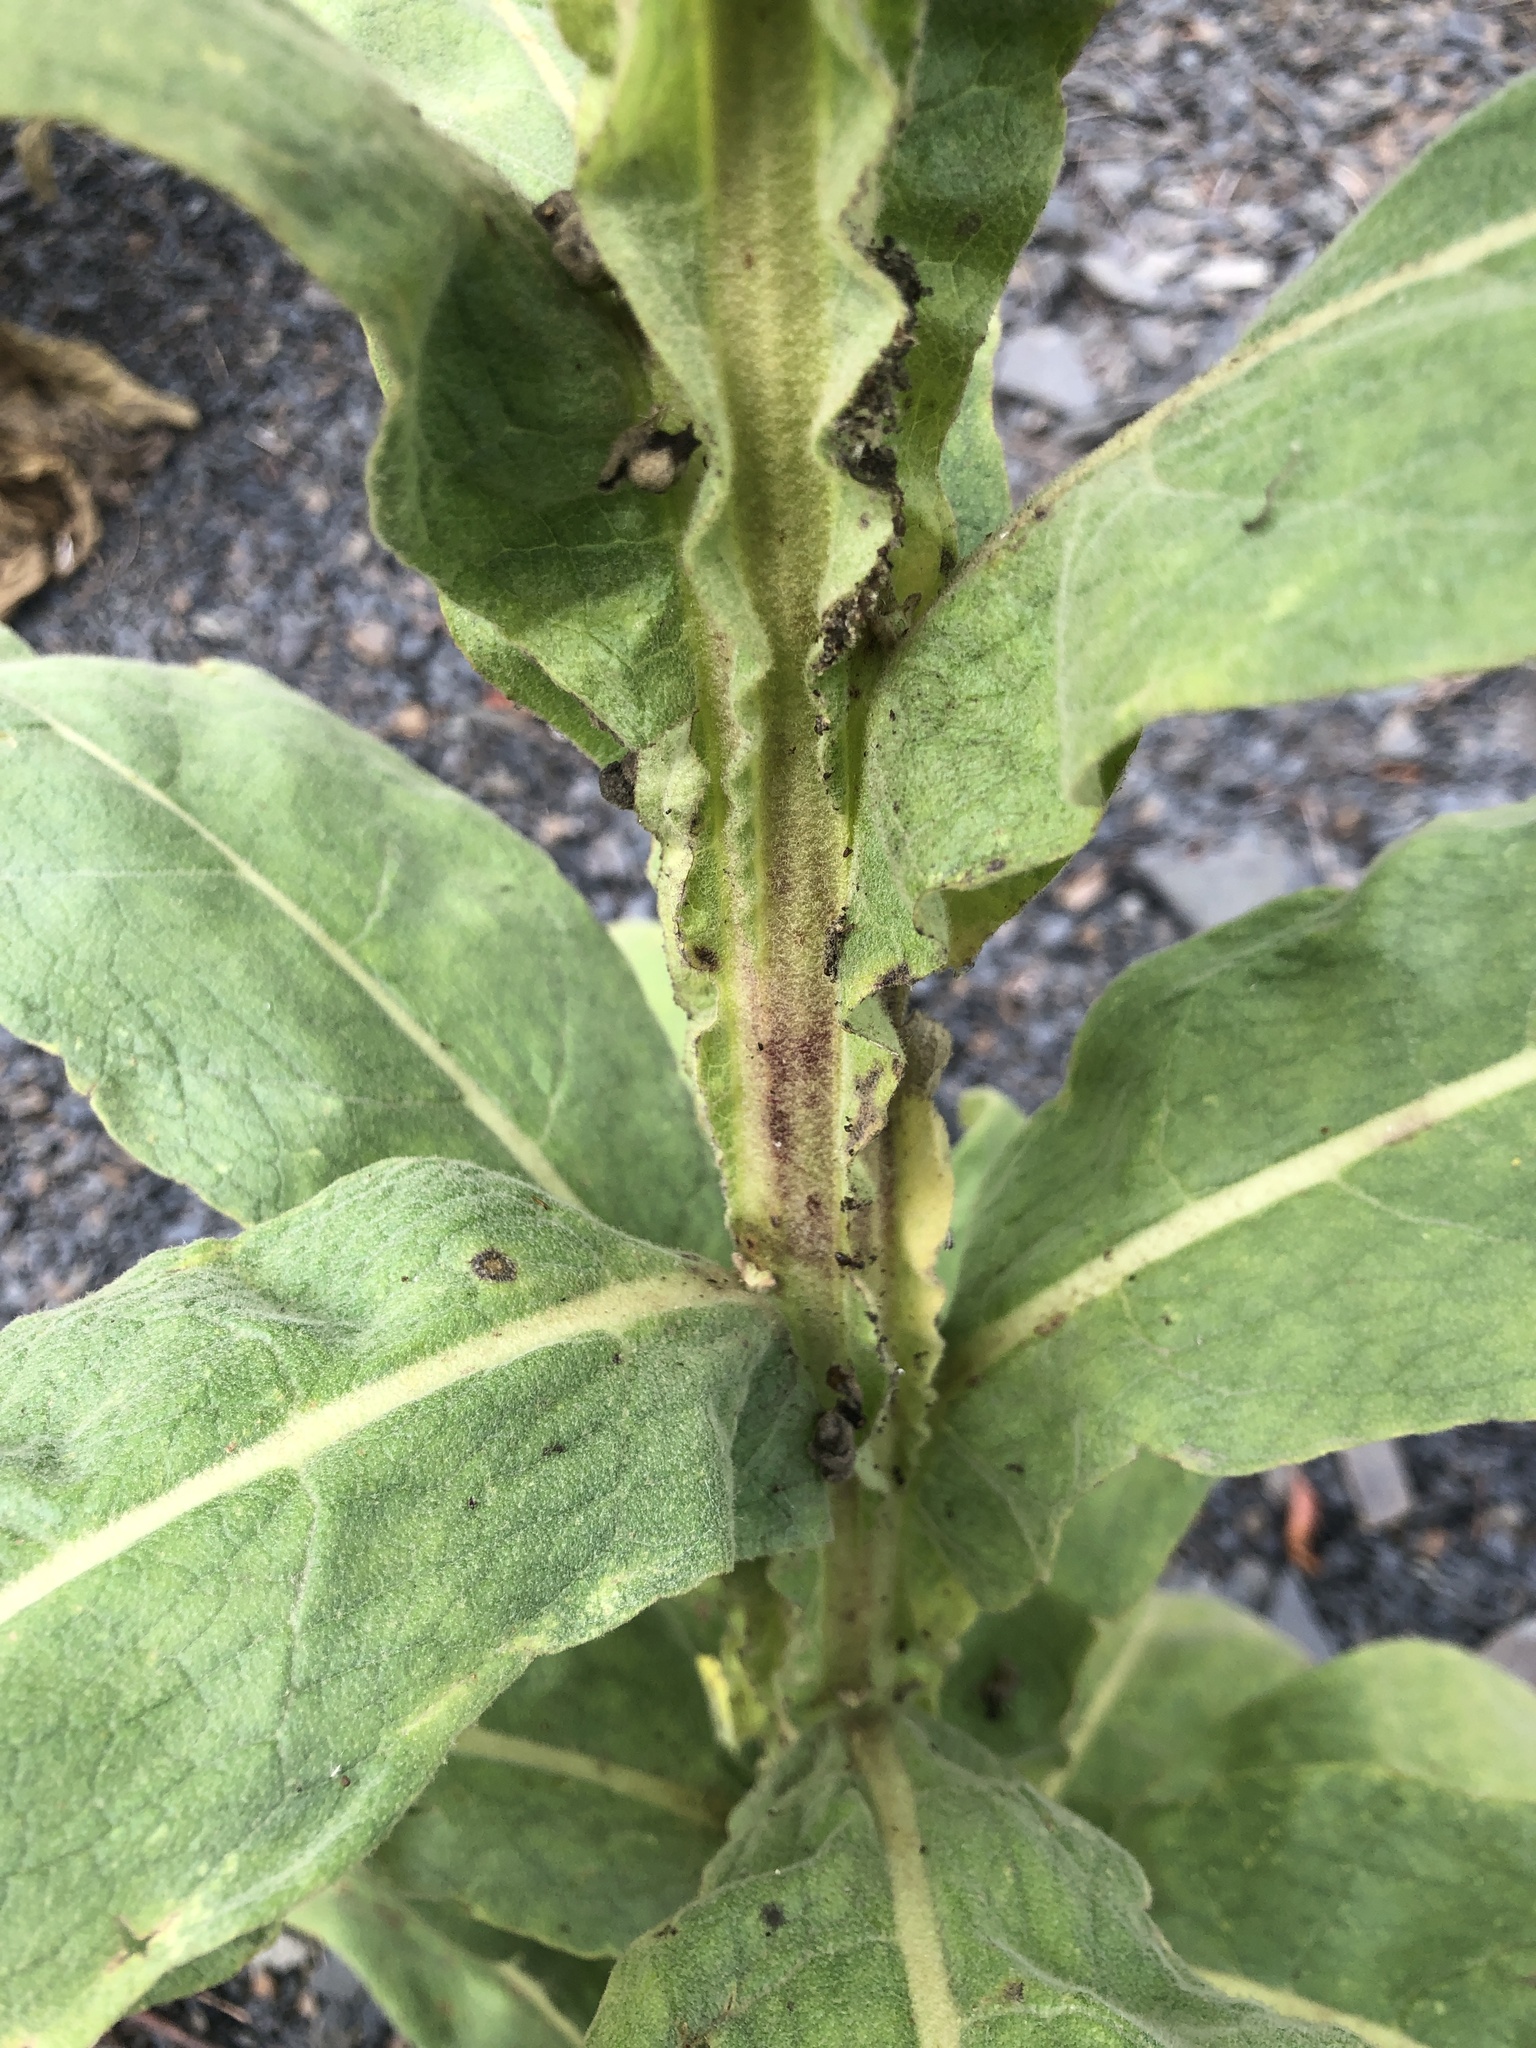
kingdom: Plantae
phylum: Tracheophyta
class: Magnoliopsida
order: Lamiales
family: Scrophulariaceae
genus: Verbascum
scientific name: Verbascum thapsus
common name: Common mullein
